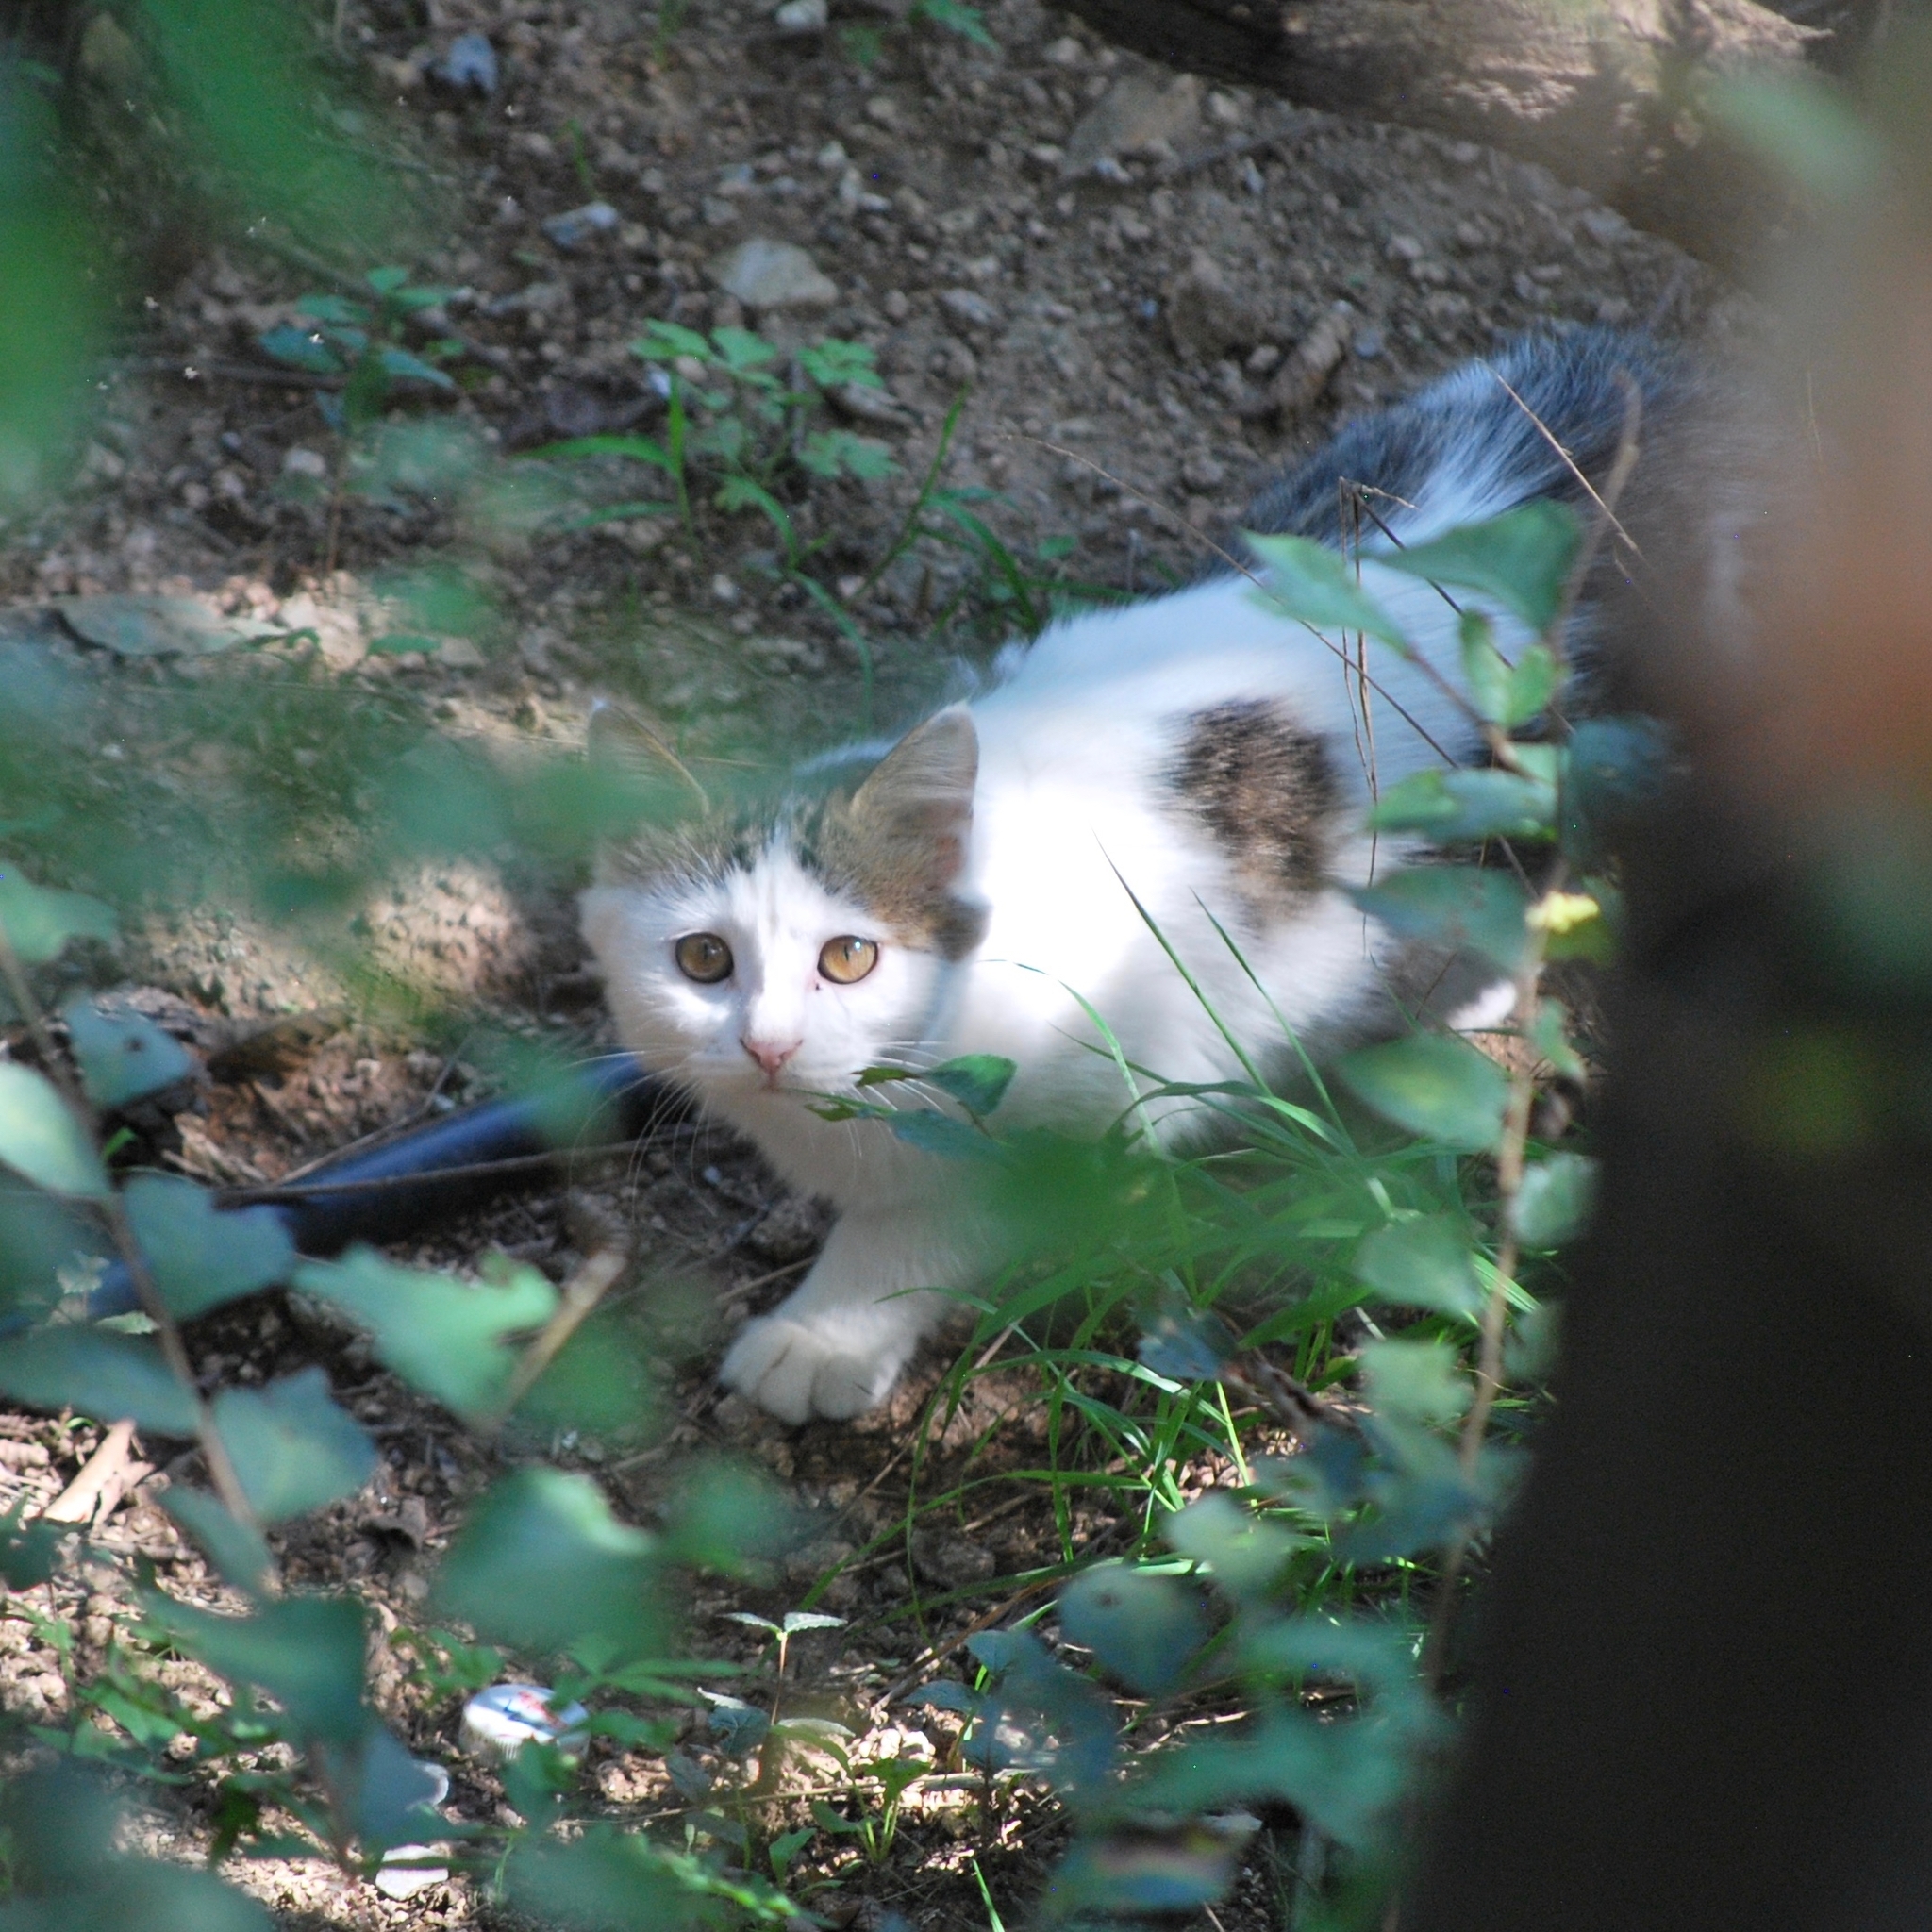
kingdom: Animalia
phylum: Chordata
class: Mammalia
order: Carnivora
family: Felidae
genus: Felis
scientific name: Felis catus
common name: Domestic cat
